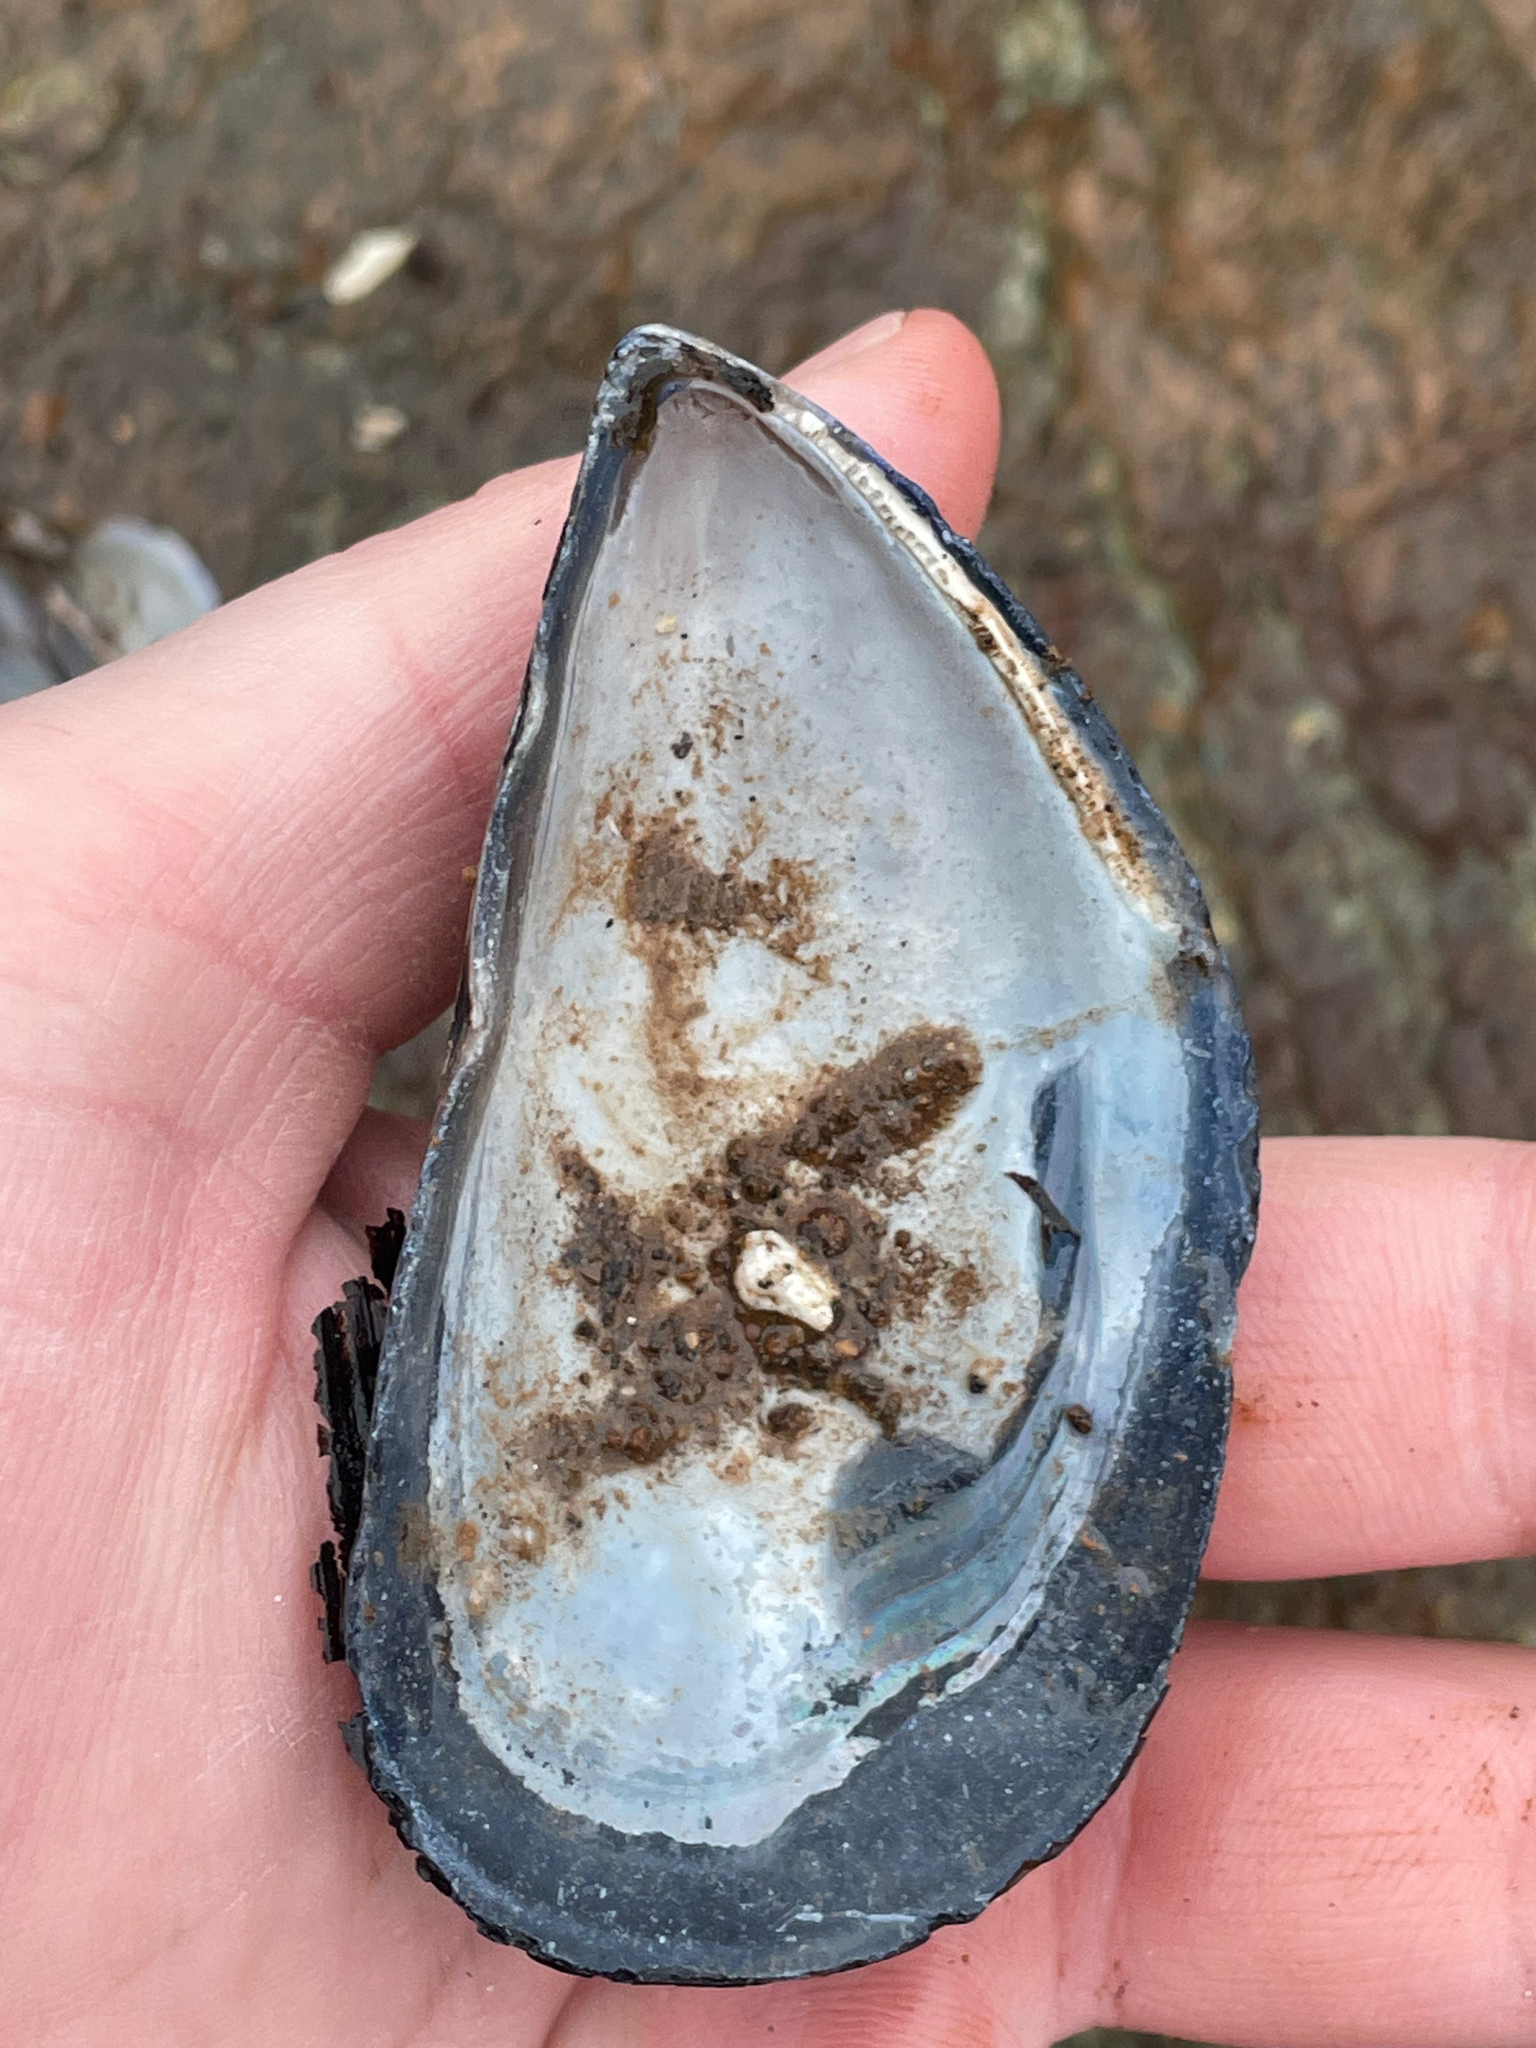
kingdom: Animalia
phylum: Mollusca
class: Bivalvia
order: Mytilida
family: Mytilidae
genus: Mytilus
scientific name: Mytilus
